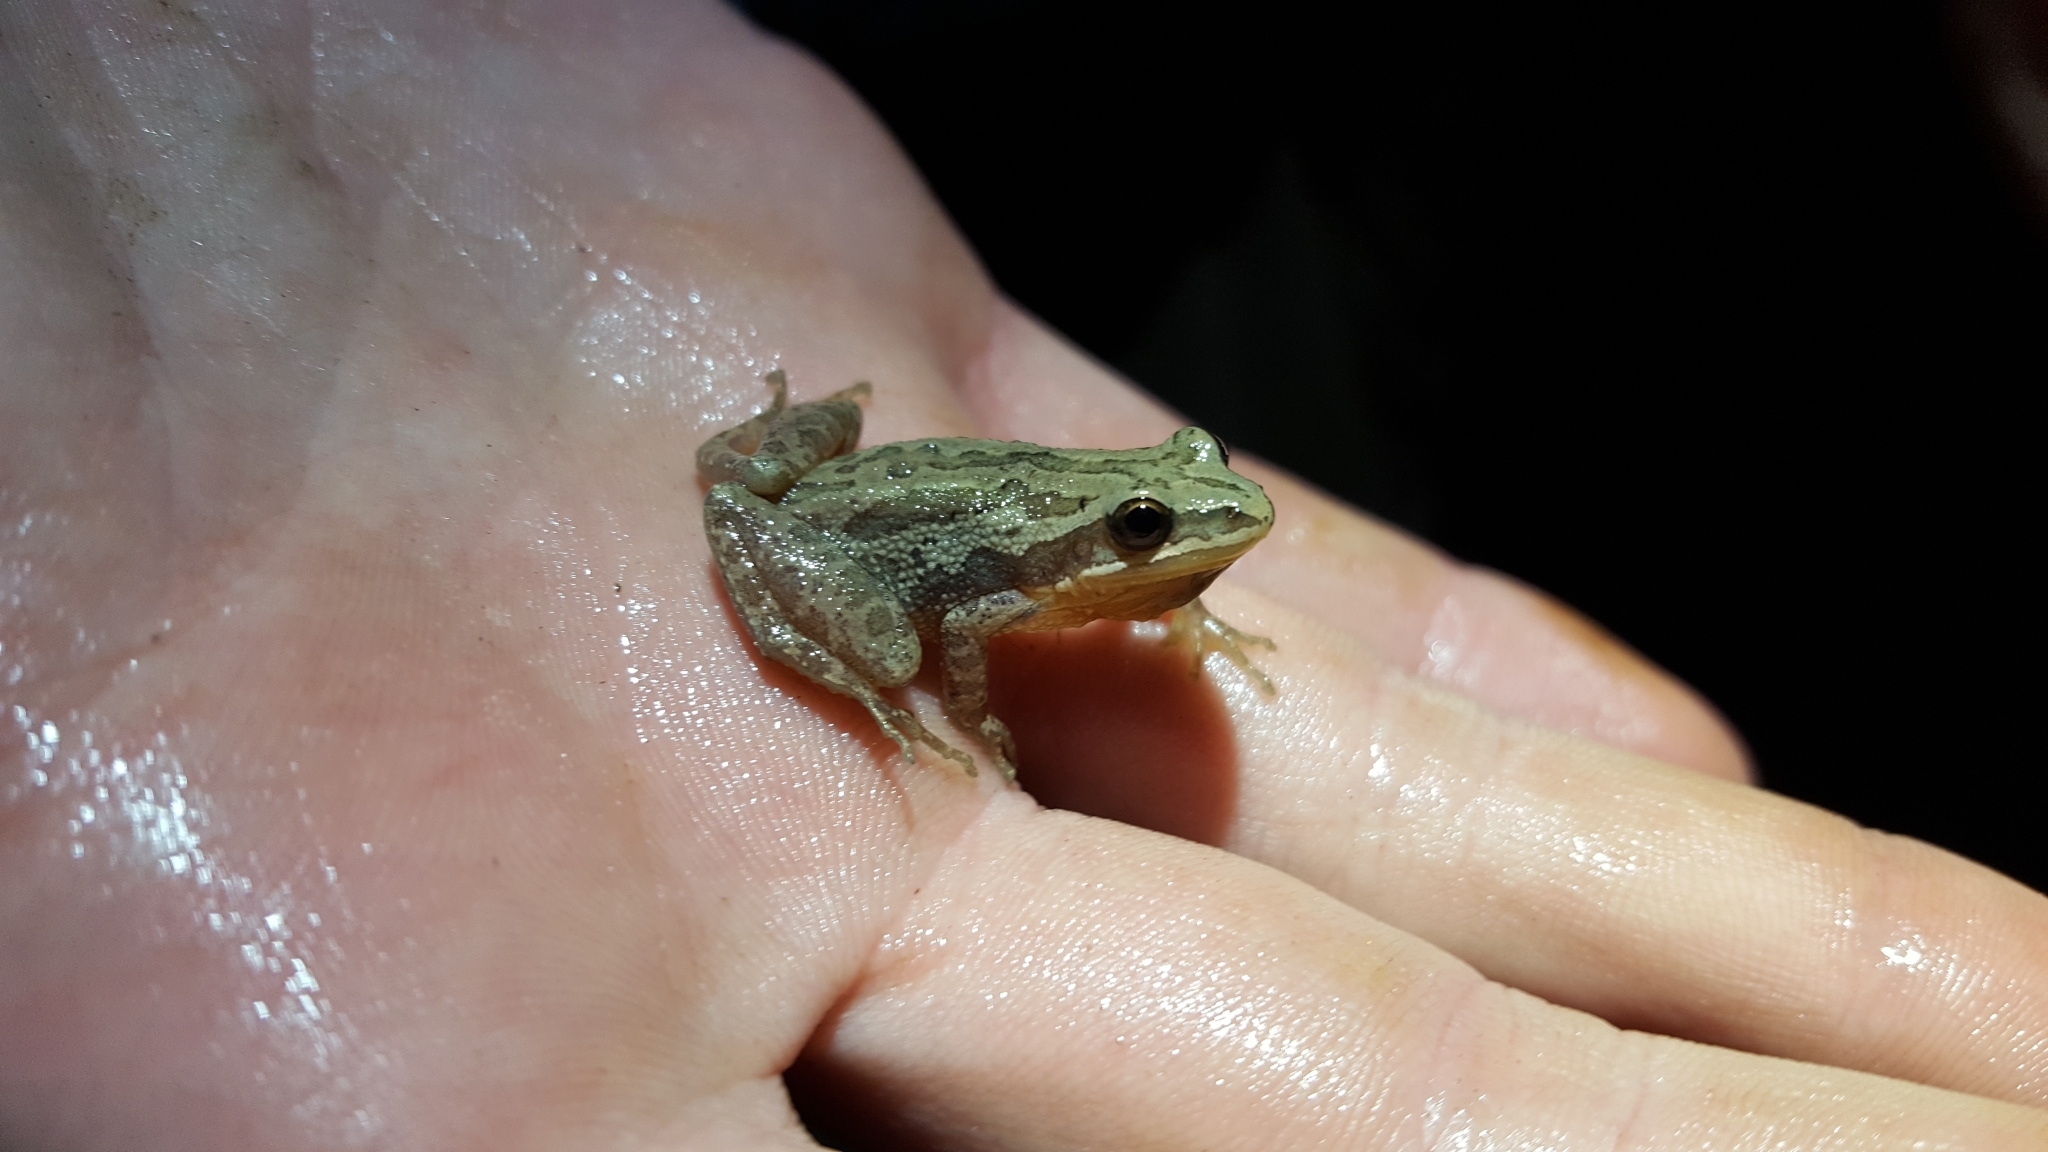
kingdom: Animalia
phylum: Chordata
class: Amphibia
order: Anura
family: Hylidae
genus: Pseudacris
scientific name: Pseudacris fouquettei
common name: Cajun chorus frog
